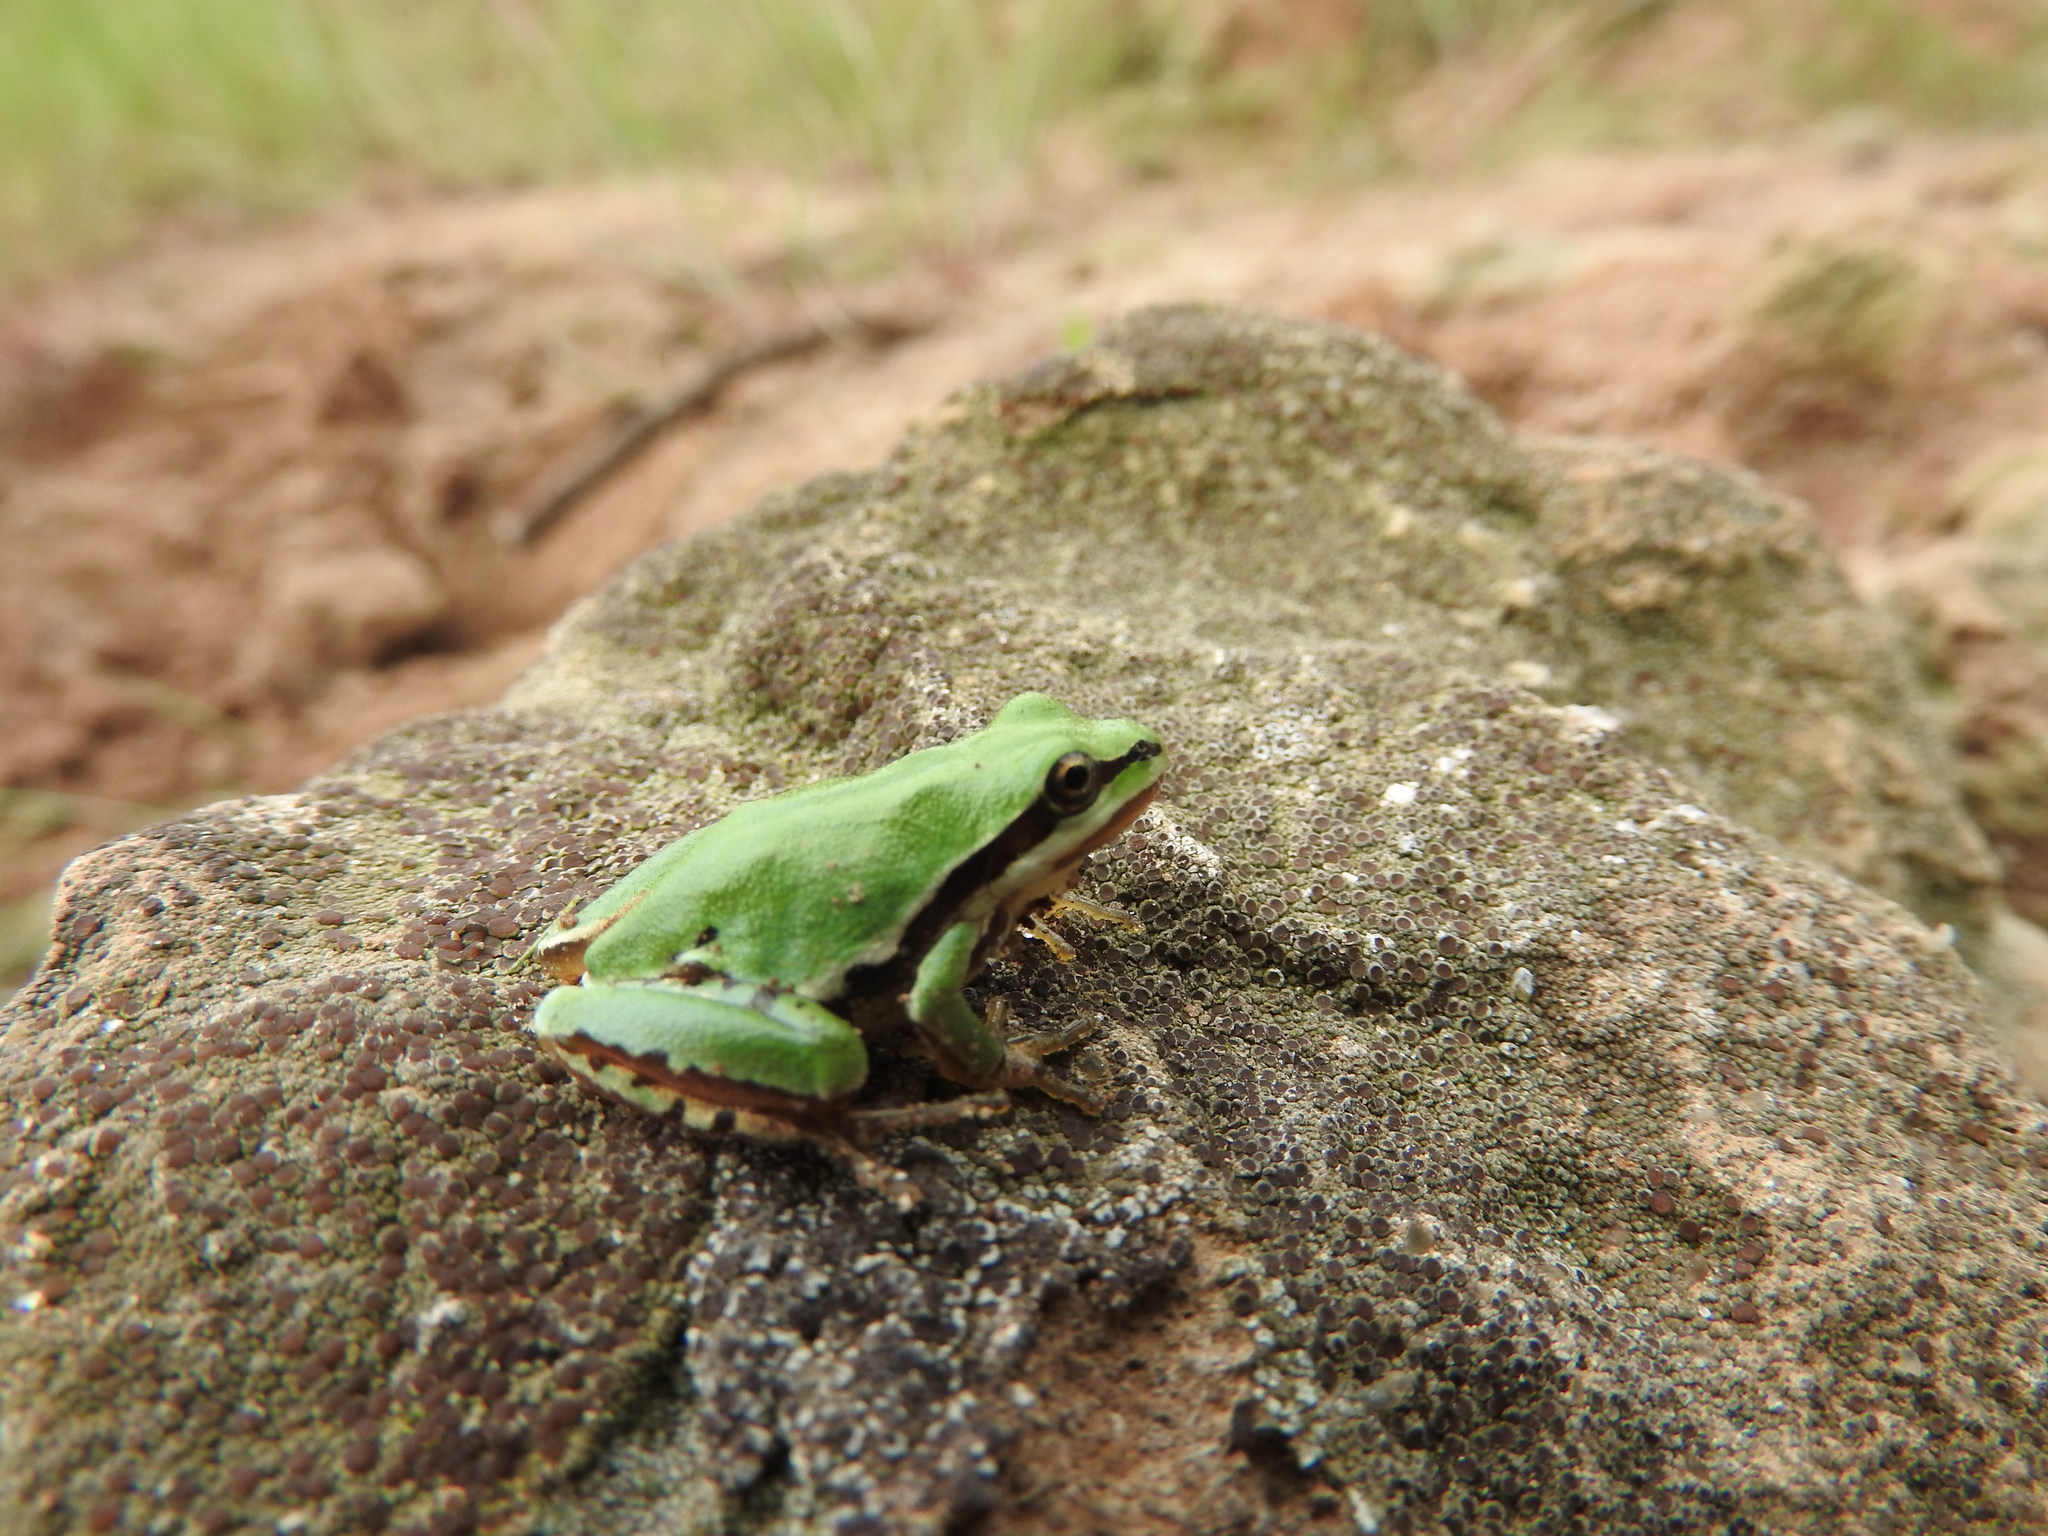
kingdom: Animalia
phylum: Chordata
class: Amphibia
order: Anura
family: Hylidae
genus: Dryophytes
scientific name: Dryophytes eximius
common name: Mountain treefrog
